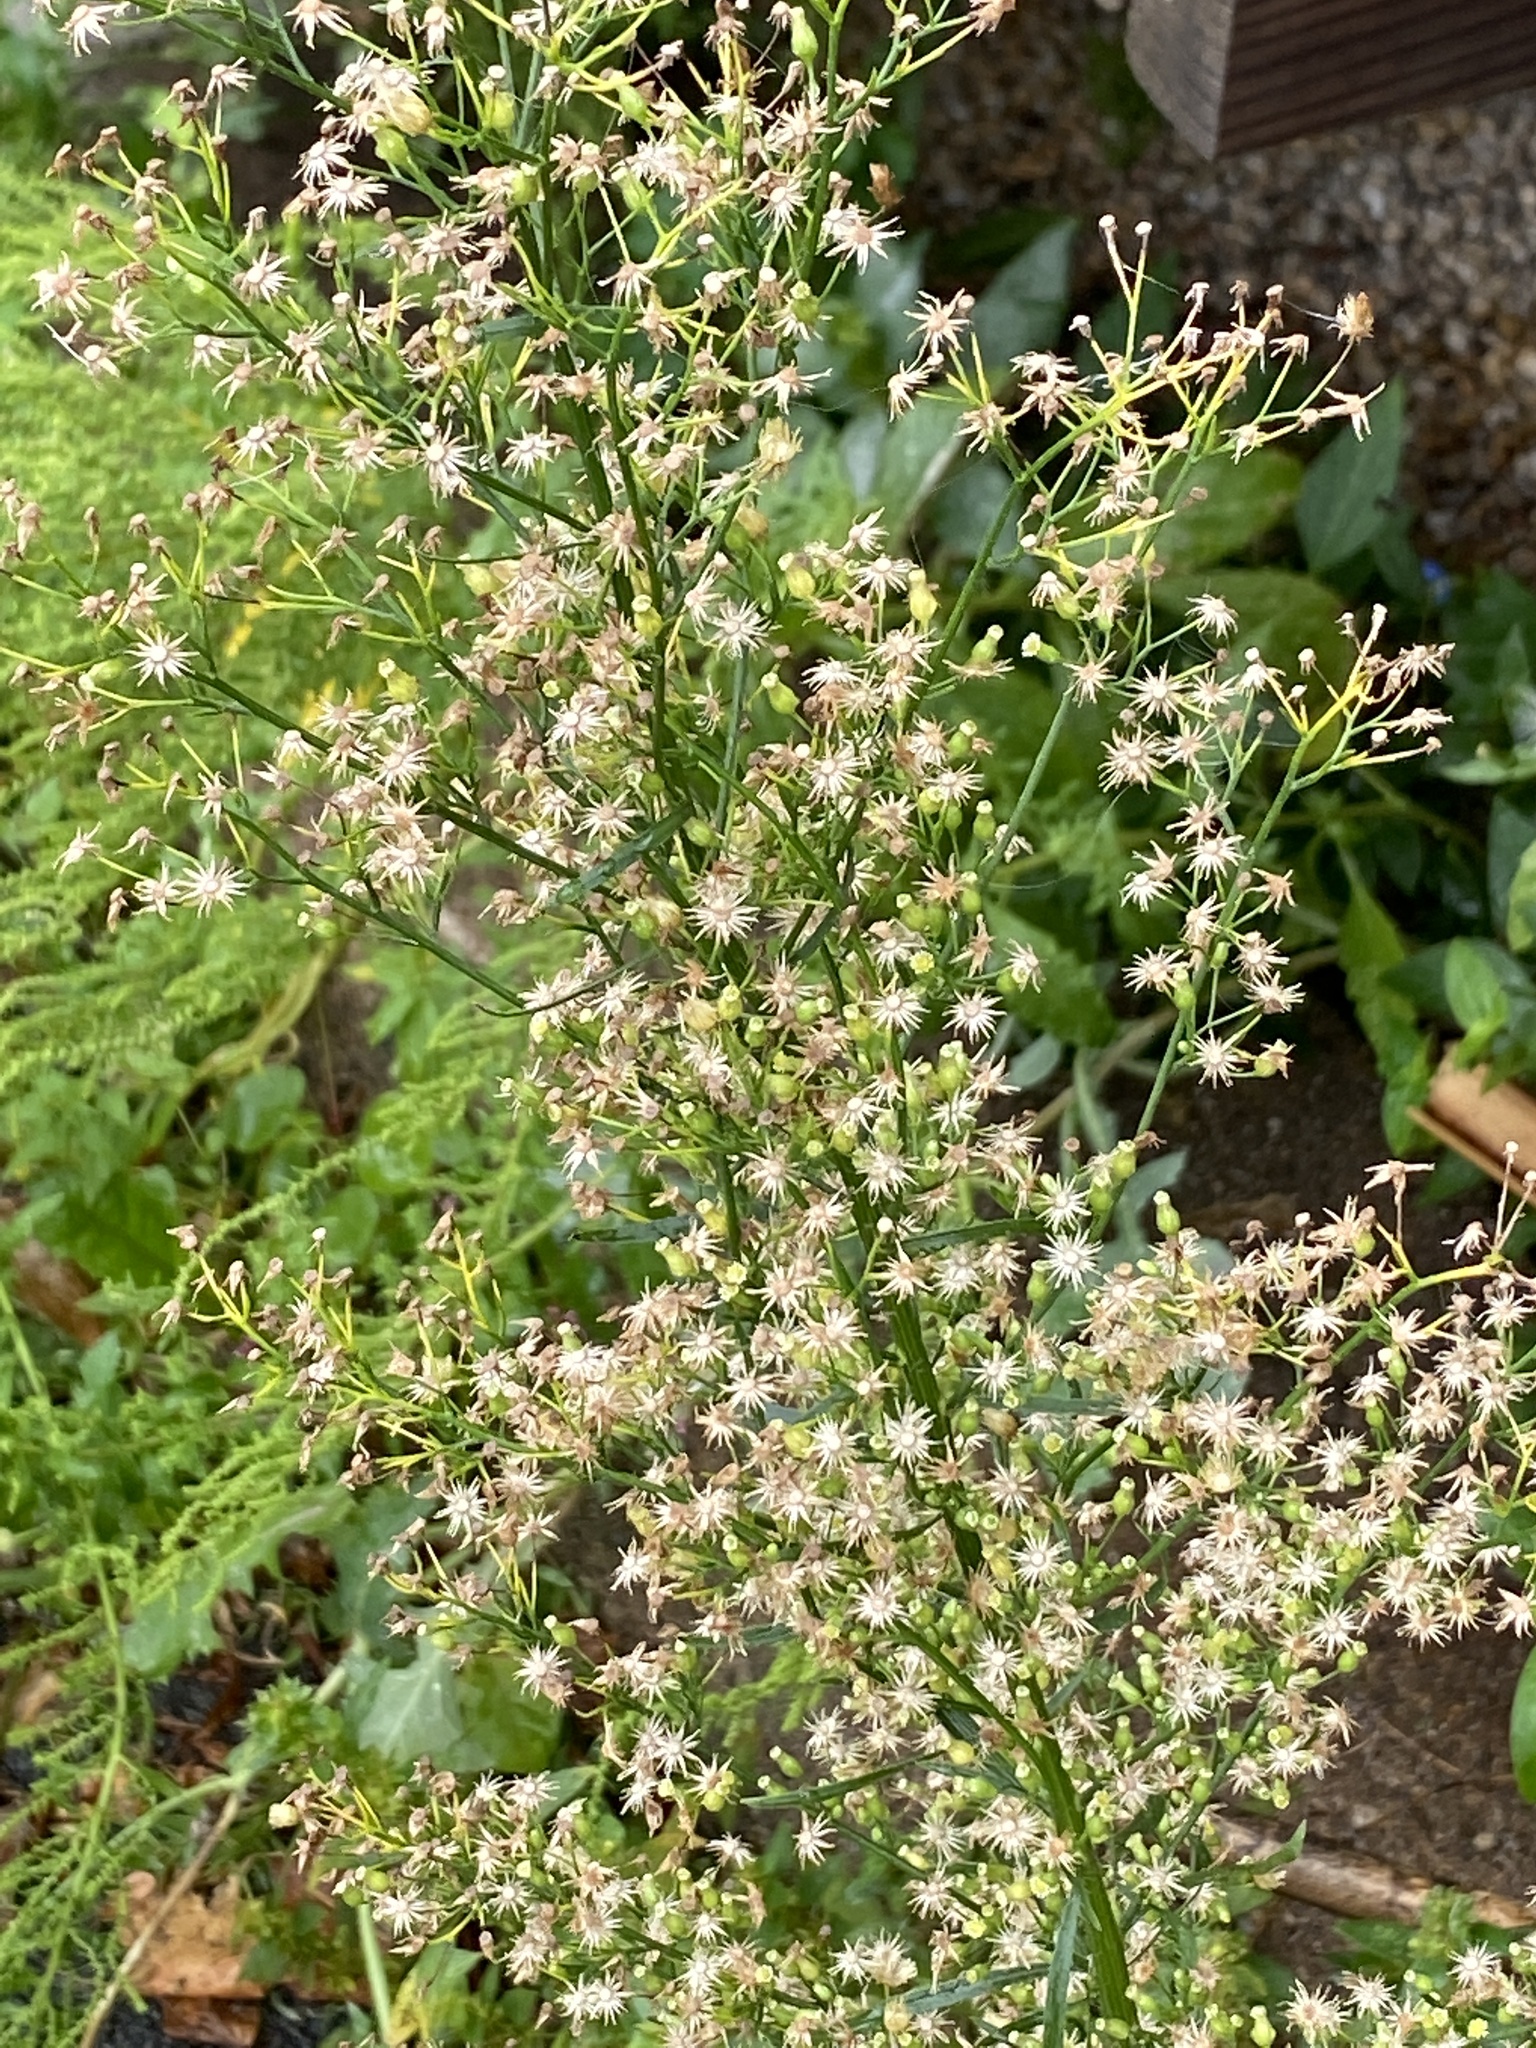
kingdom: Plantae
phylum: Tracheophyta
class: Magnoliopsida
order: Asterales
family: Asteraceae
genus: Erigeron
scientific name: Erigeron canadensis
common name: Canadian fleabane
